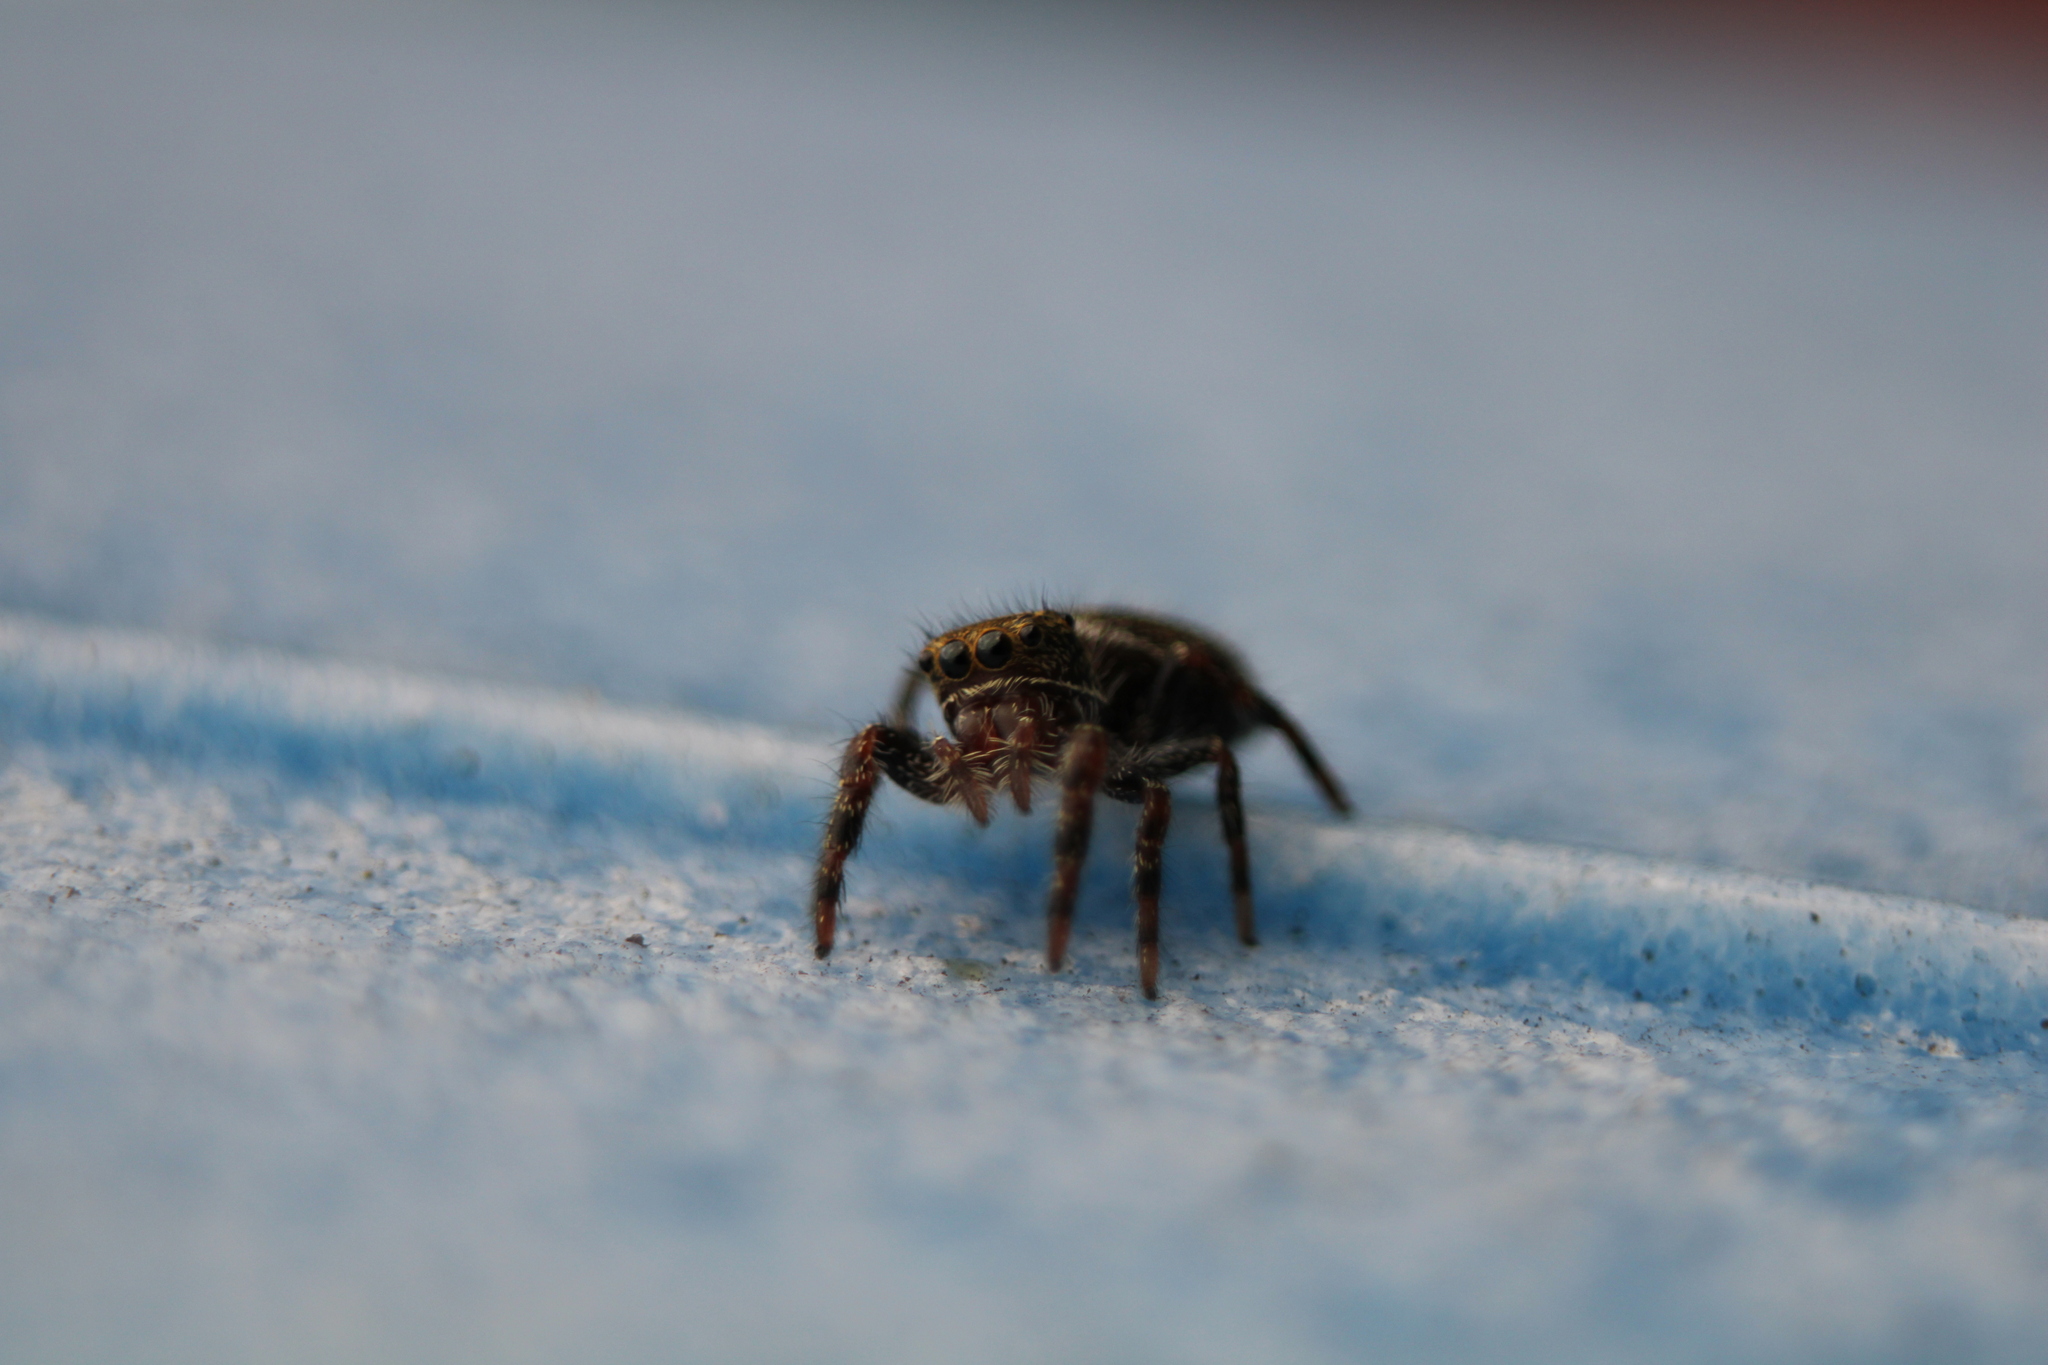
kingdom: Animalia
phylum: Arthropoda
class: Arachnida
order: Araneae
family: Salticidae
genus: Phidippus
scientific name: Phidippus audax
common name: Bold jumper
